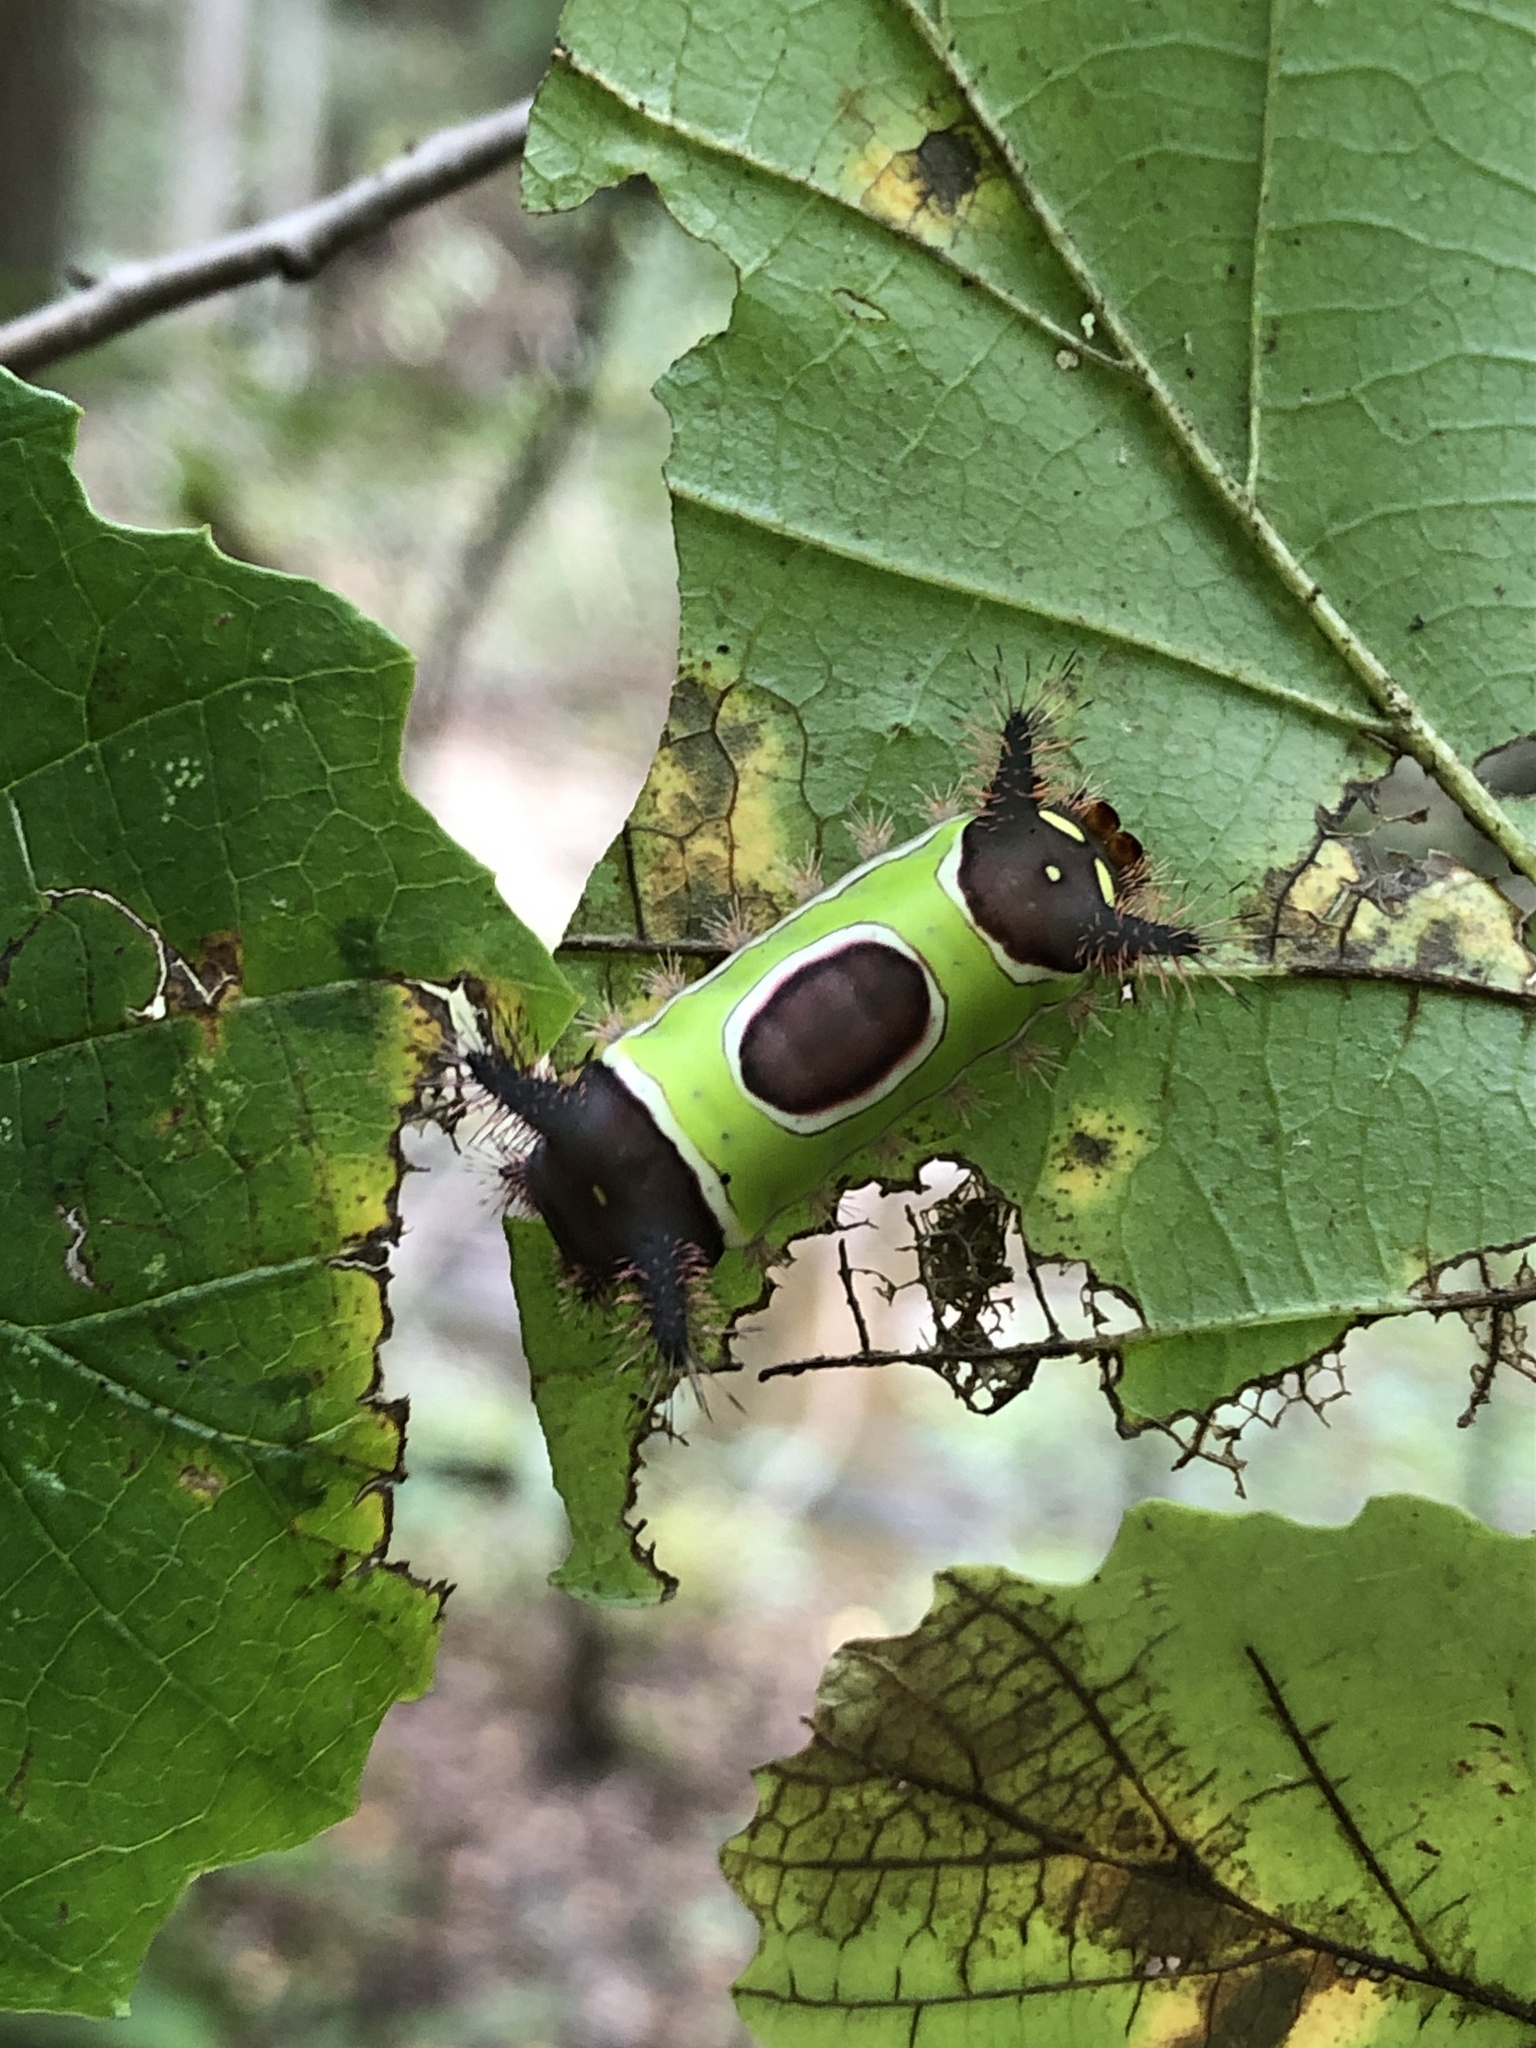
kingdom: Animalia
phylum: Arthropoda
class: Insecta
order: Lepidoptera
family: Limacodidae
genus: Acharia
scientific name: Acharia stimulea
